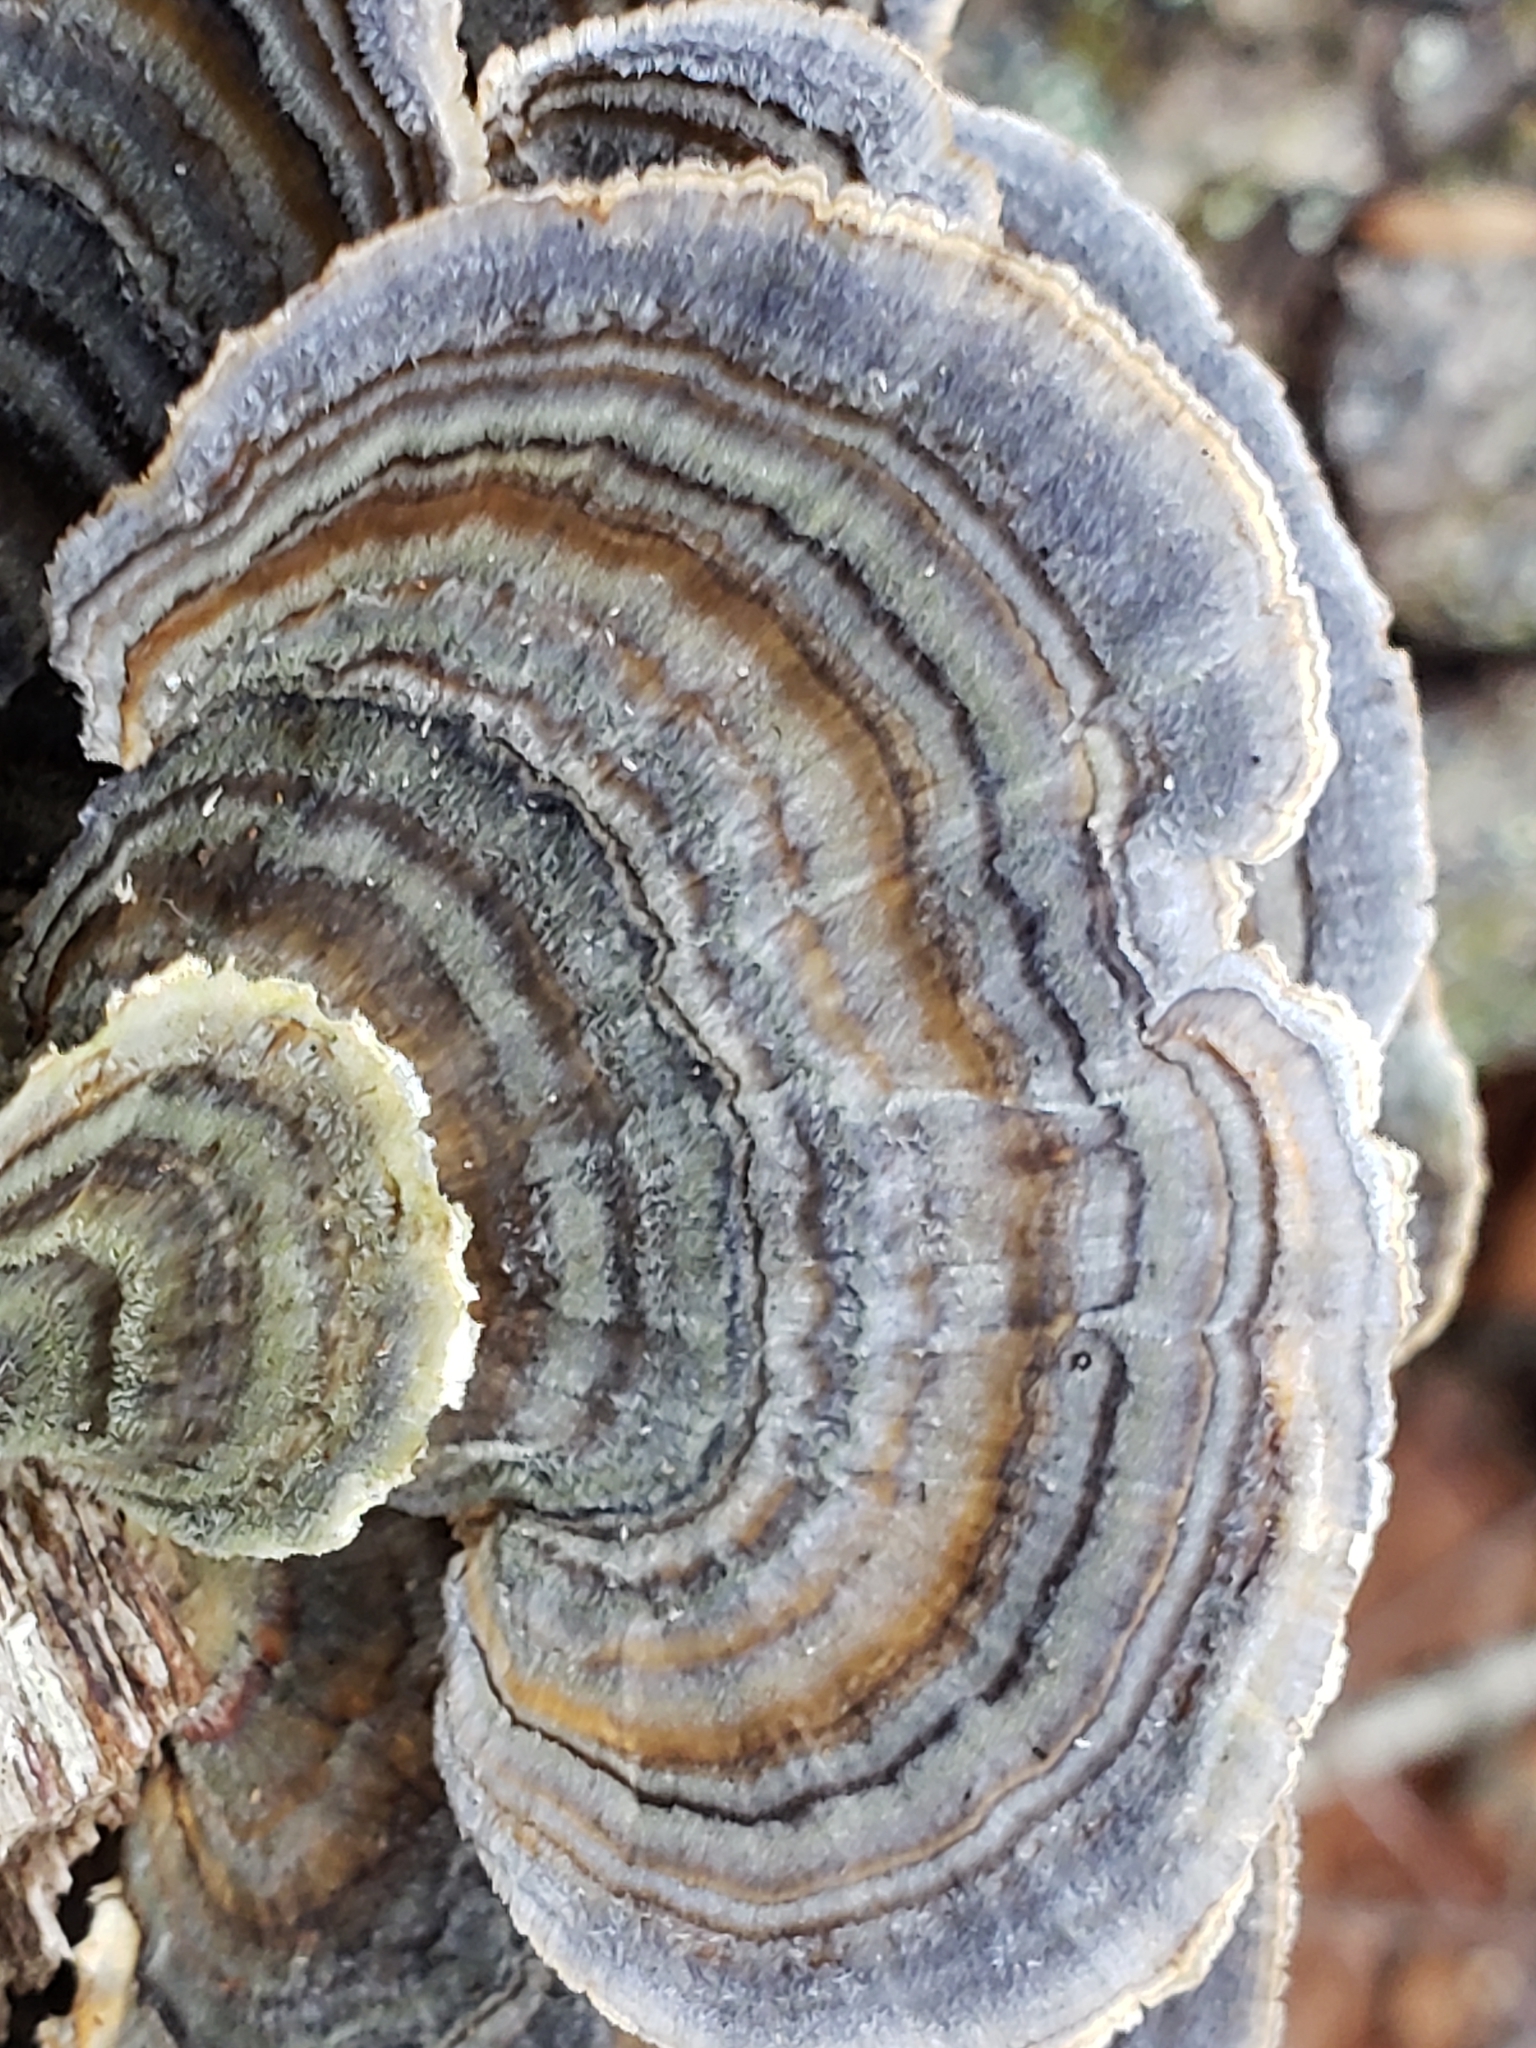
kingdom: Fungi
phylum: Basidiomycota
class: Agaricomycetes
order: Polyporales
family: Polyporaceae
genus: Trametes
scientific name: Trametes versicolor
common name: Turkeytail
